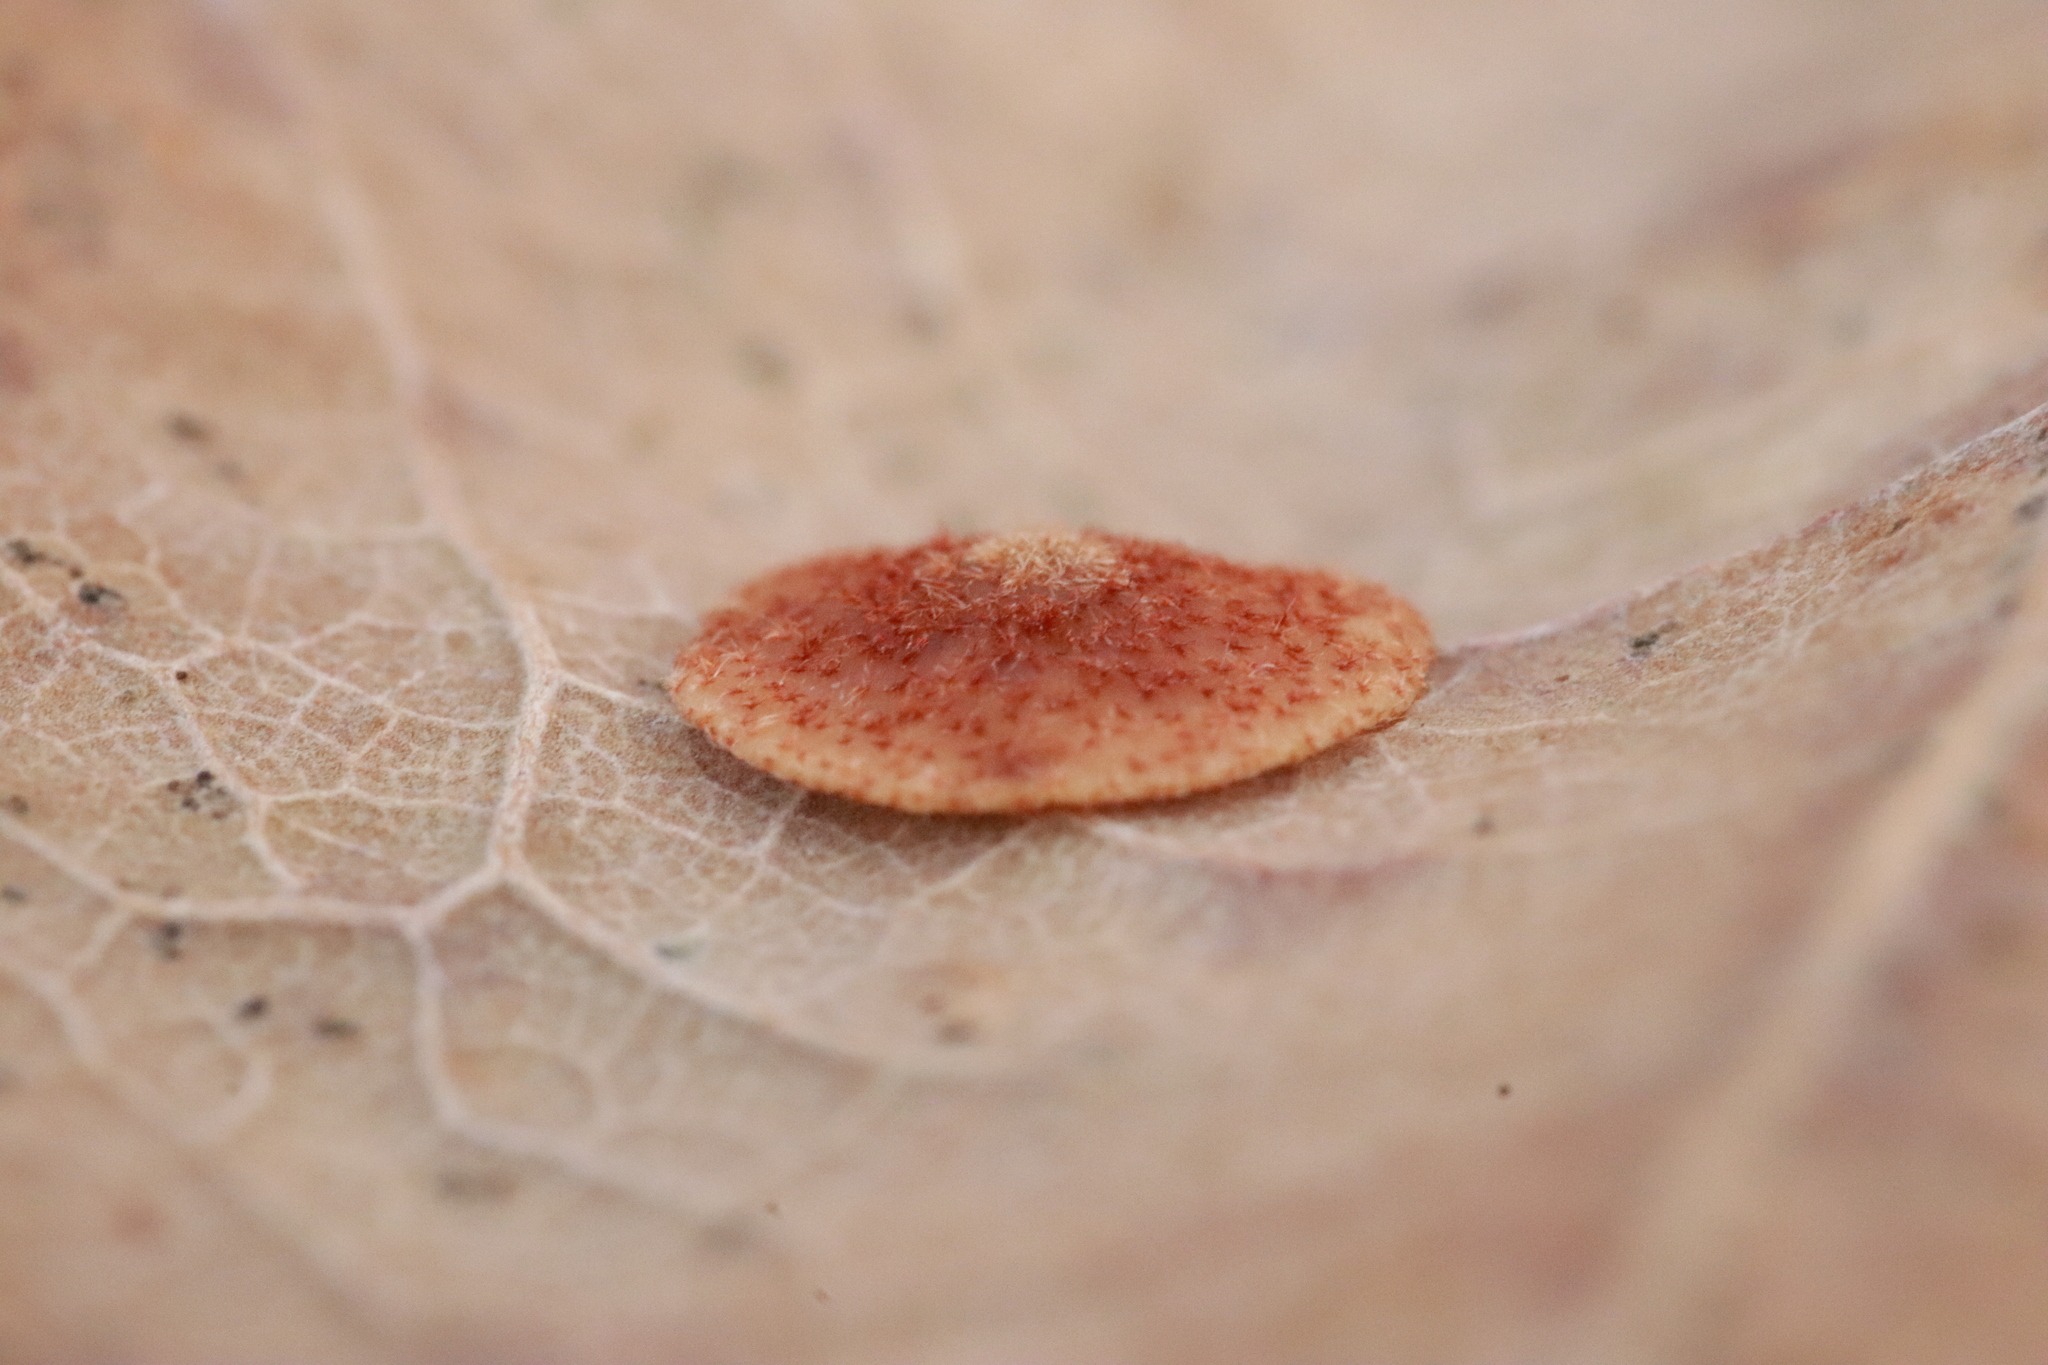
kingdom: Animalia
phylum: Arthropoda
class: Insecta
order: Hymenoptera
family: Cynipidae
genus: Neuroterus
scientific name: Neuroterus quercusbaccarum
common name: Common spangle gall
